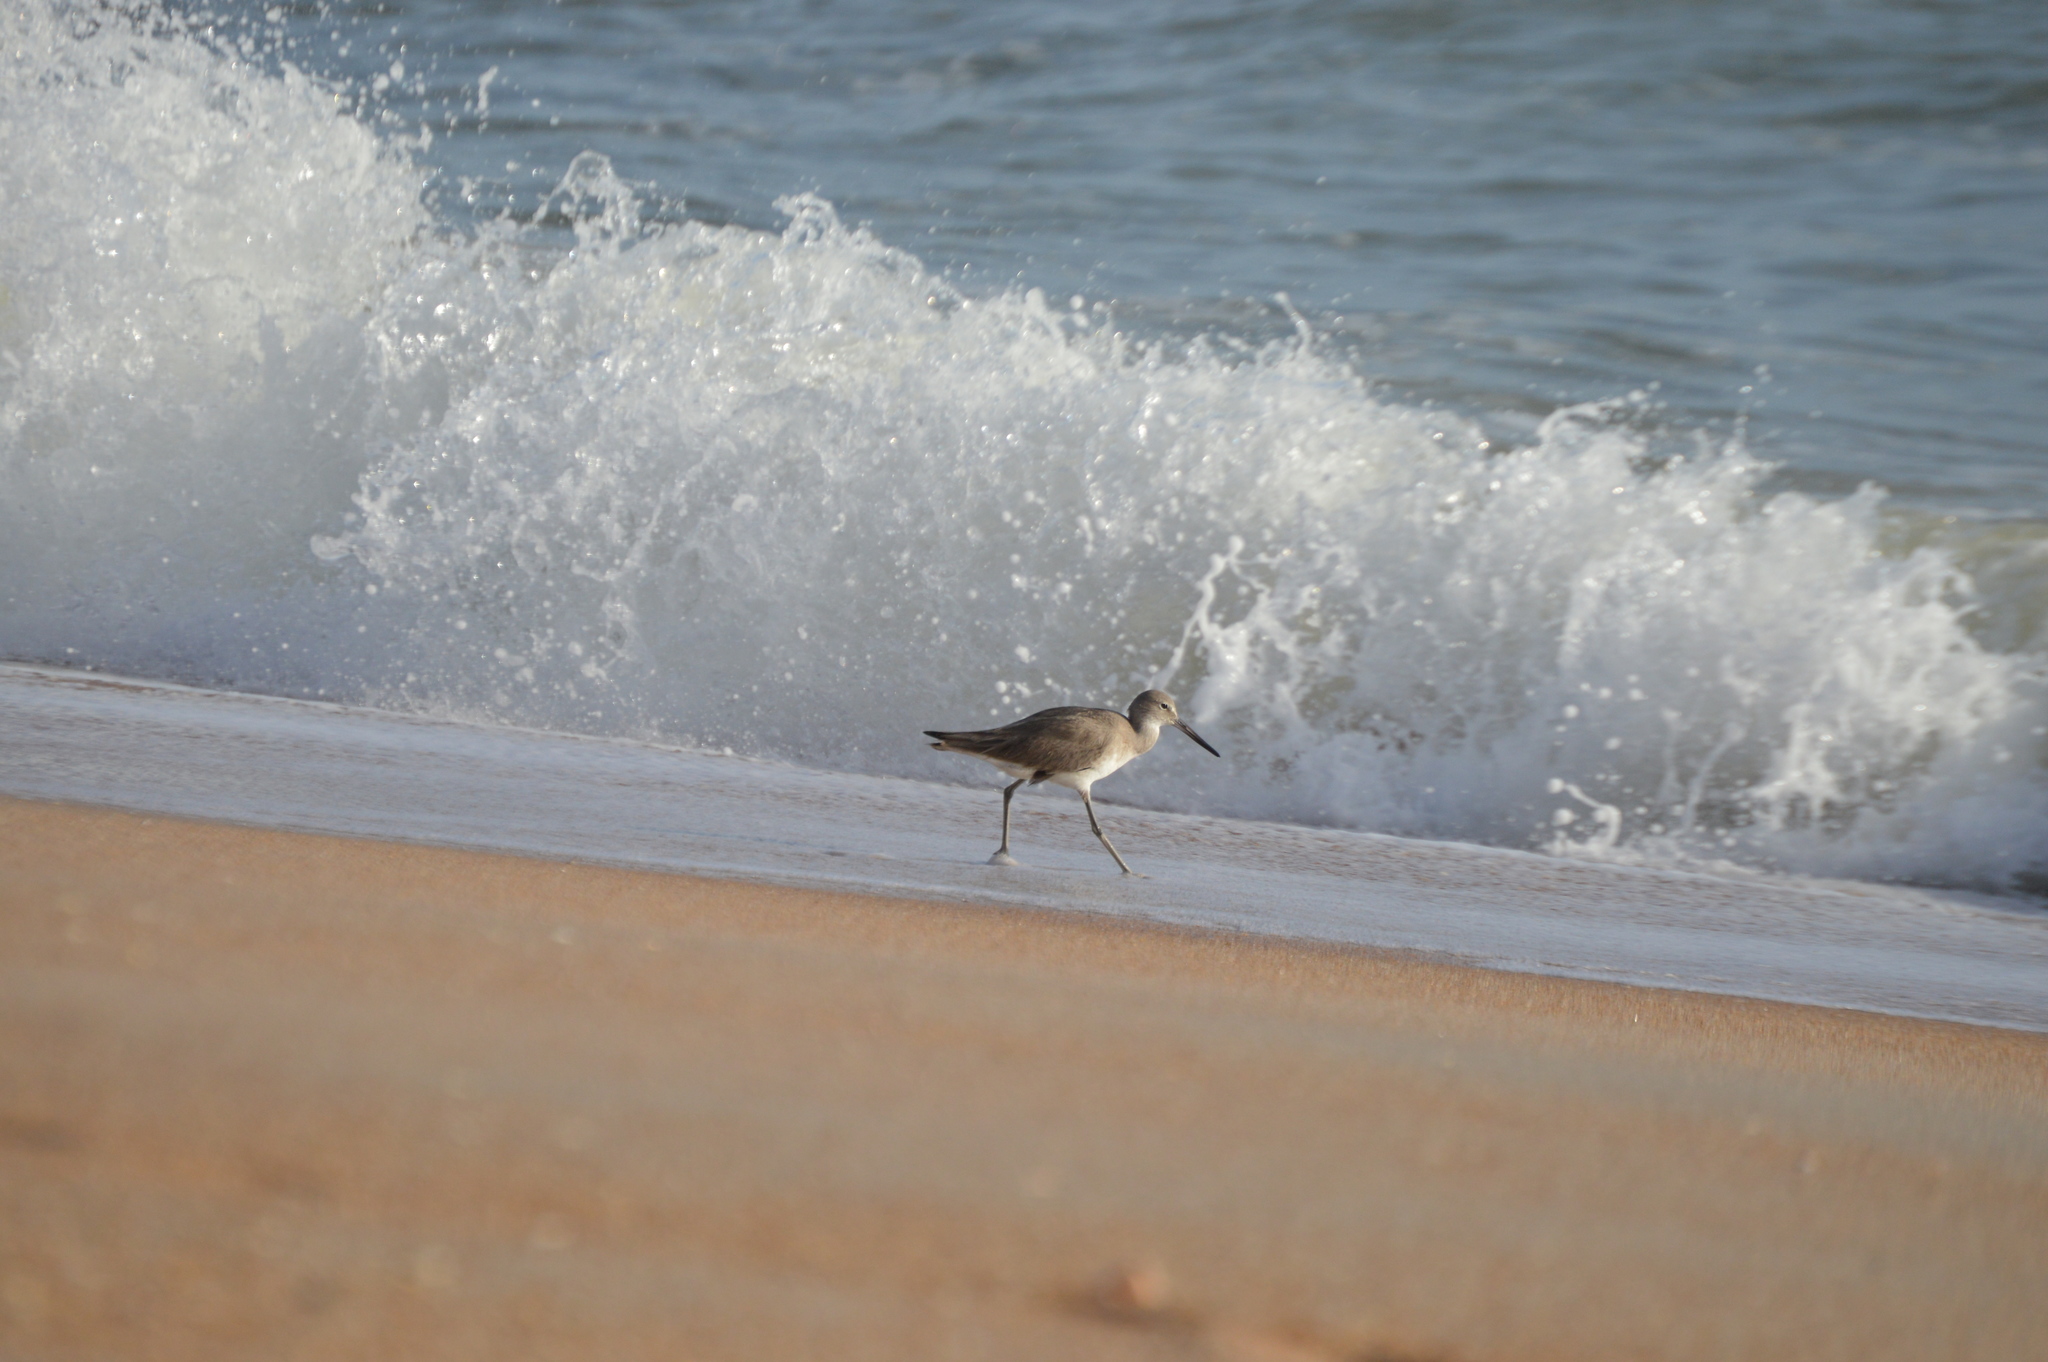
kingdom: Animalia
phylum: Chordata
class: Aves
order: Charadriiformes
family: Scolopacidae
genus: Tringa
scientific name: Tringa semipalmata
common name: Willet
